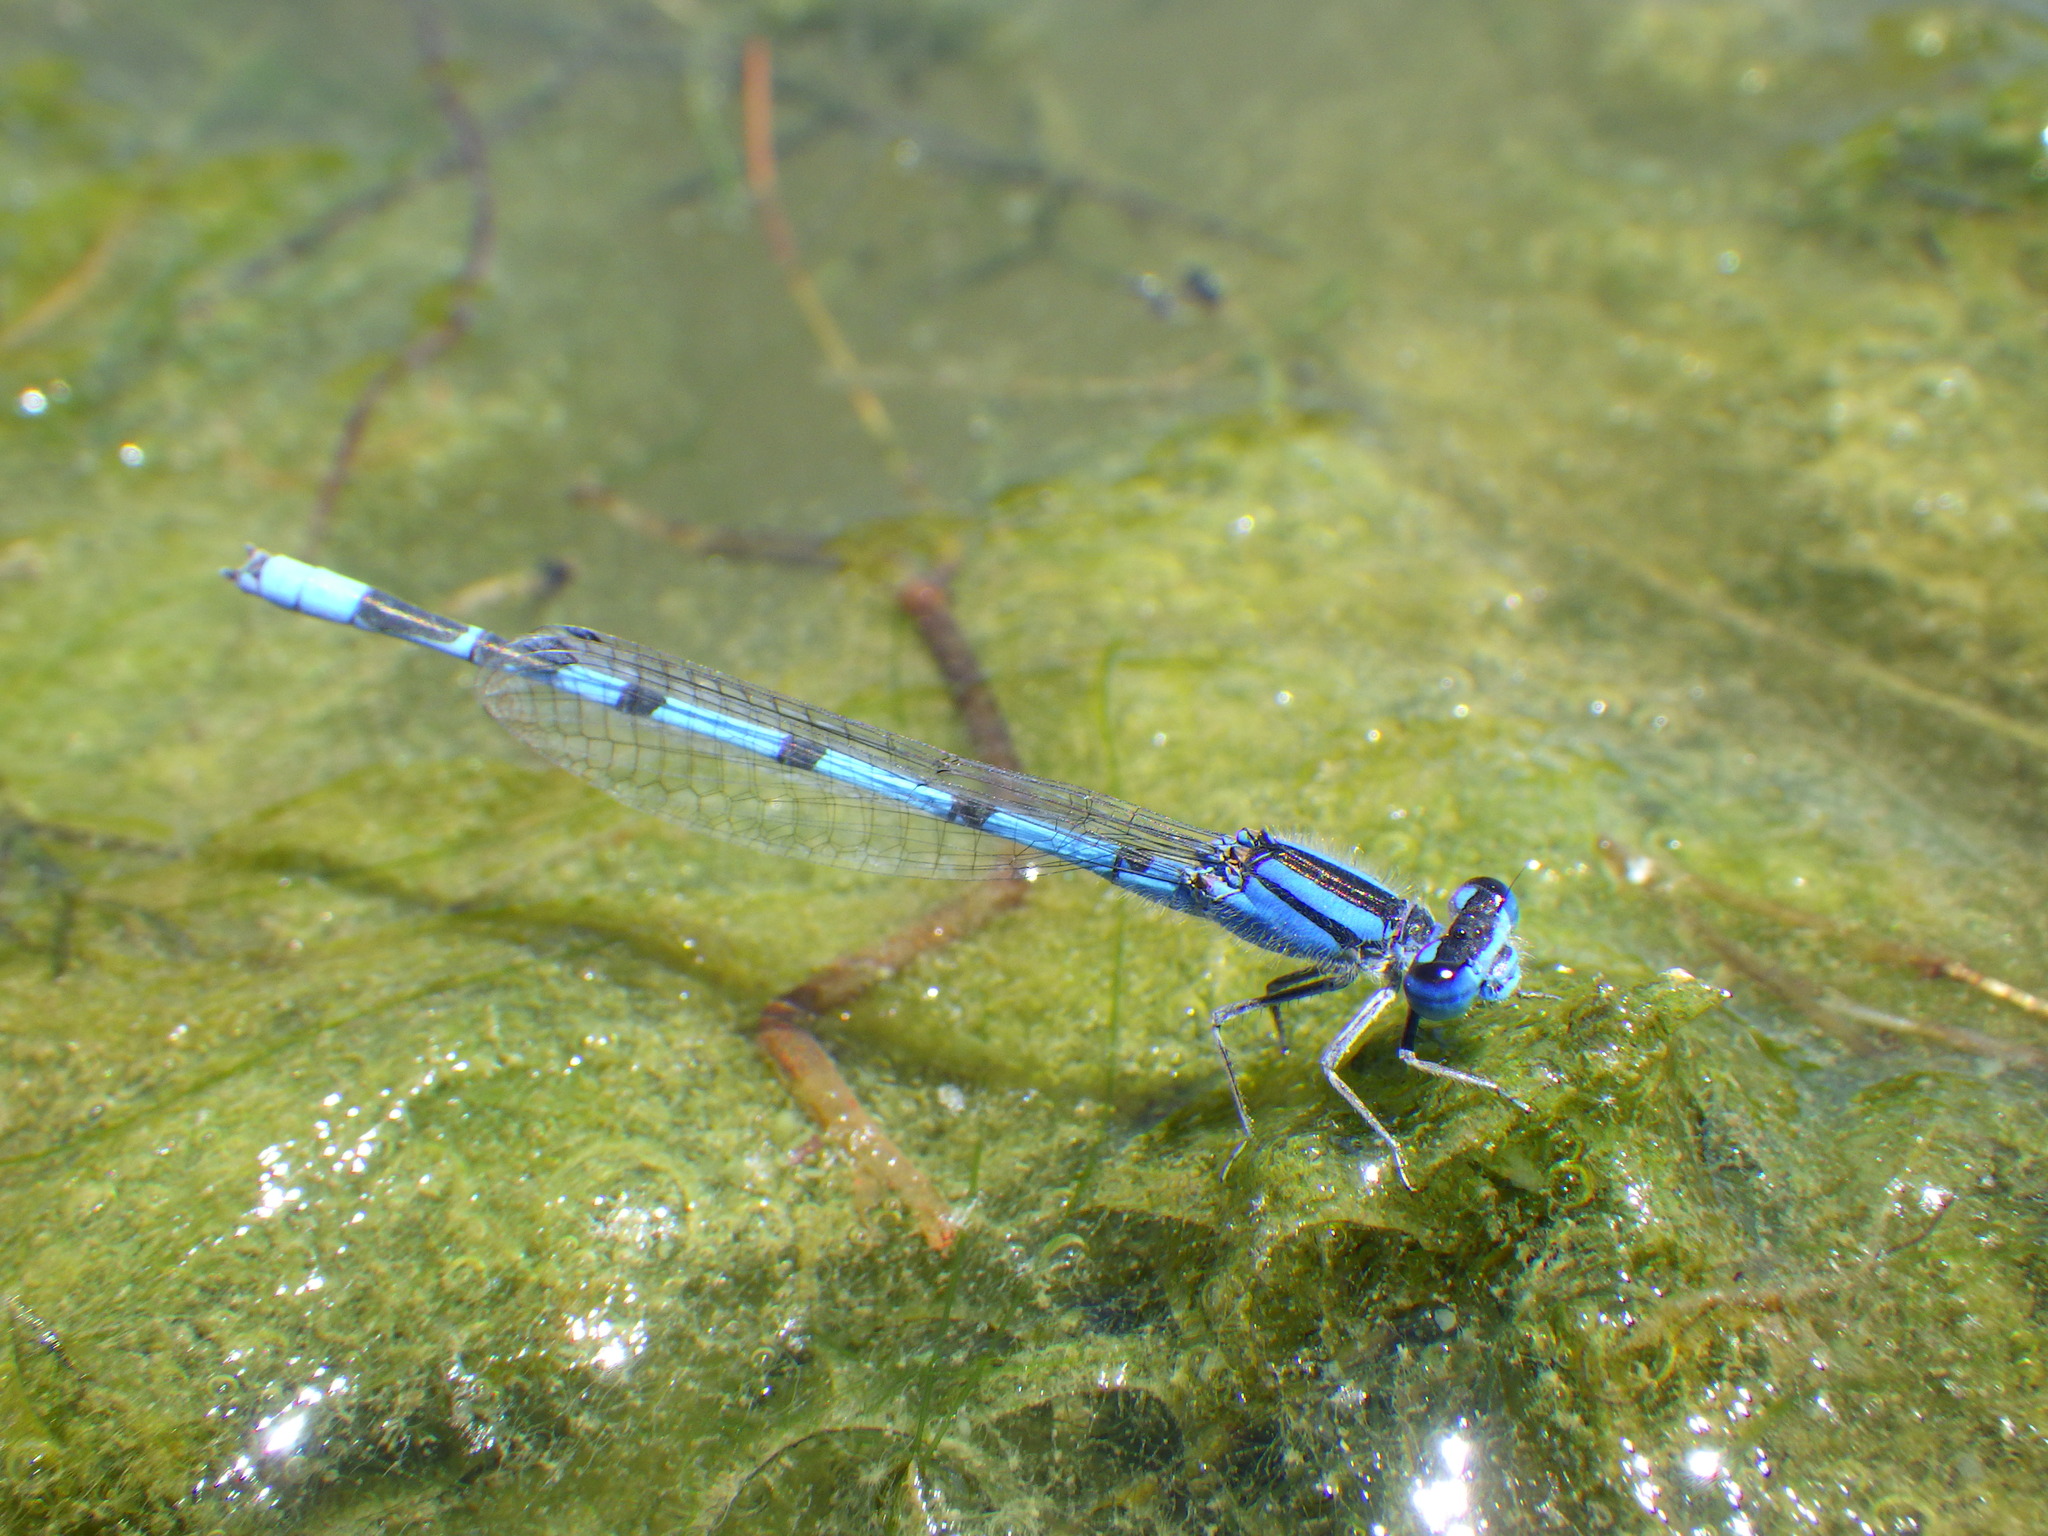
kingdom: Animalia
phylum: Arthropoda
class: Insecta
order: Odonata
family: Coenagrionidae
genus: Enallagma
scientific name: Enallagma civile
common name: Damselfly
